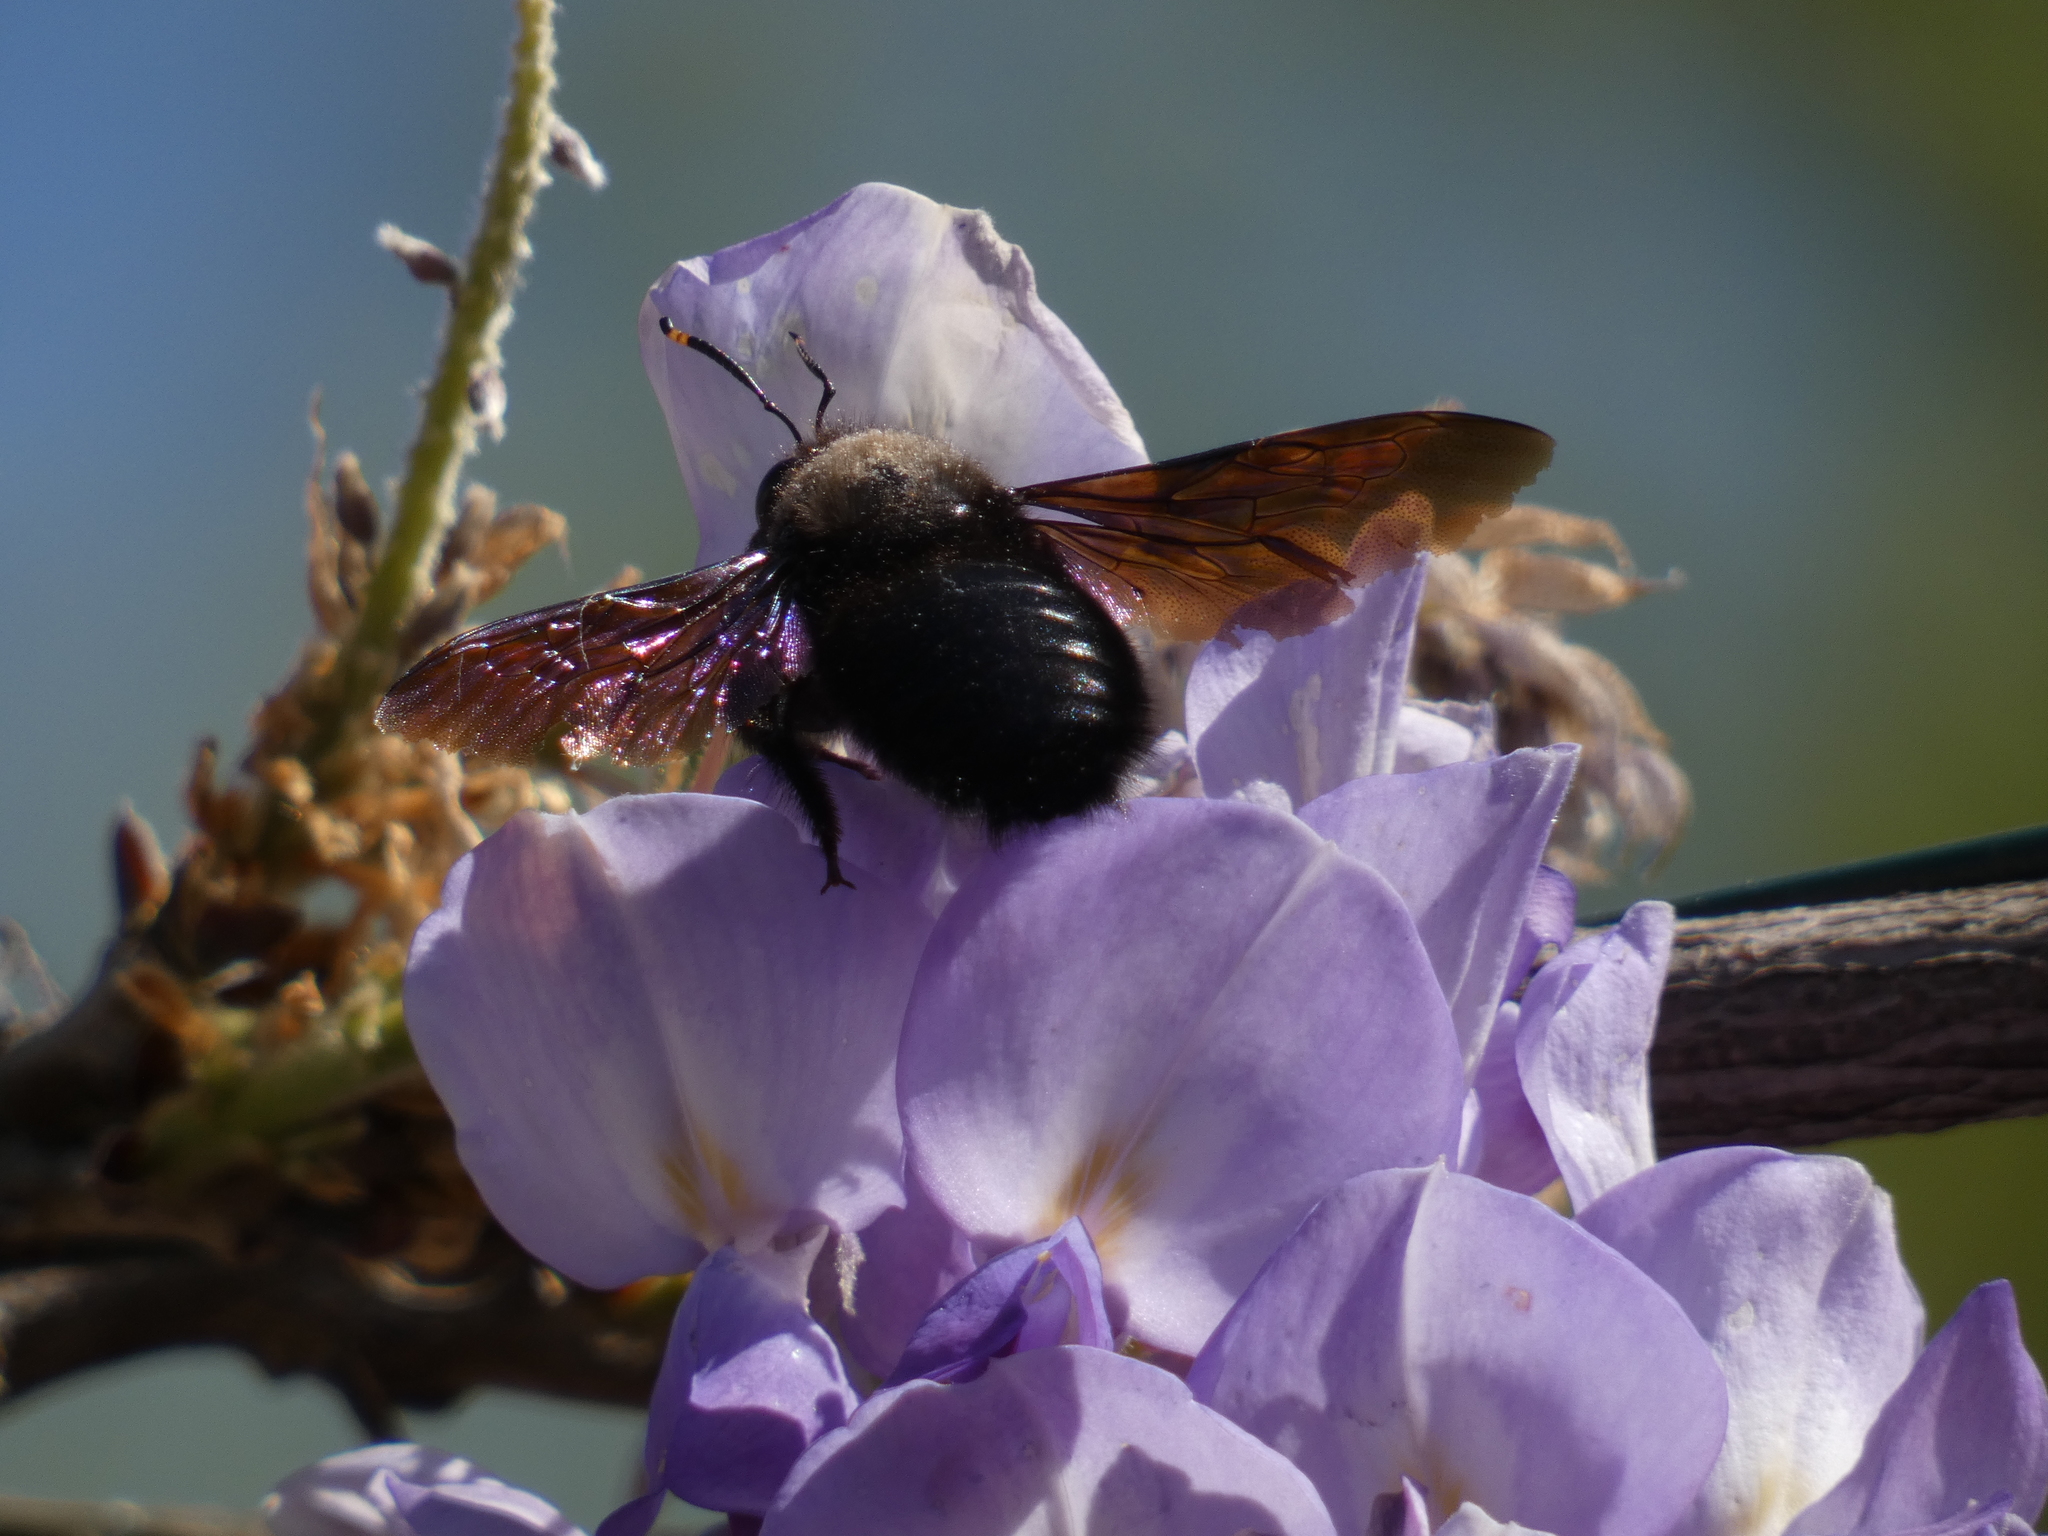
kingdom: Animalia
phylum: Arthropoda
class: Insecta
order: Hymenoptera
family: Apidae
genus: Xylocopa
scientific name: Xylocopa violacea
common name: Violet carpenter bee
